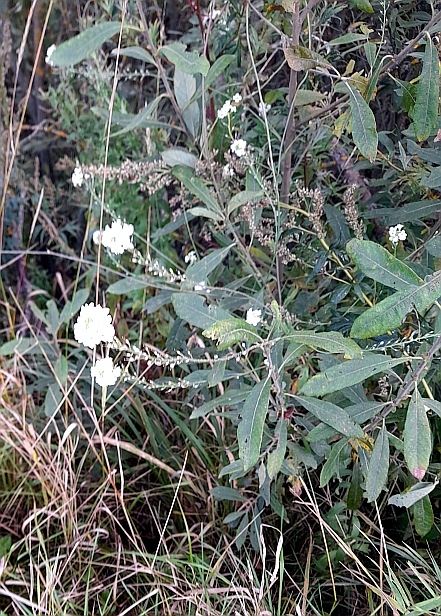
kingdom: Plantae
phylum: Tracheophyta
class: Magnoliopsida
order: Brassicales
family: Brassicaceae
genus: Berteroa
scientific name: Berteroa incana
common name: Hoary alison
